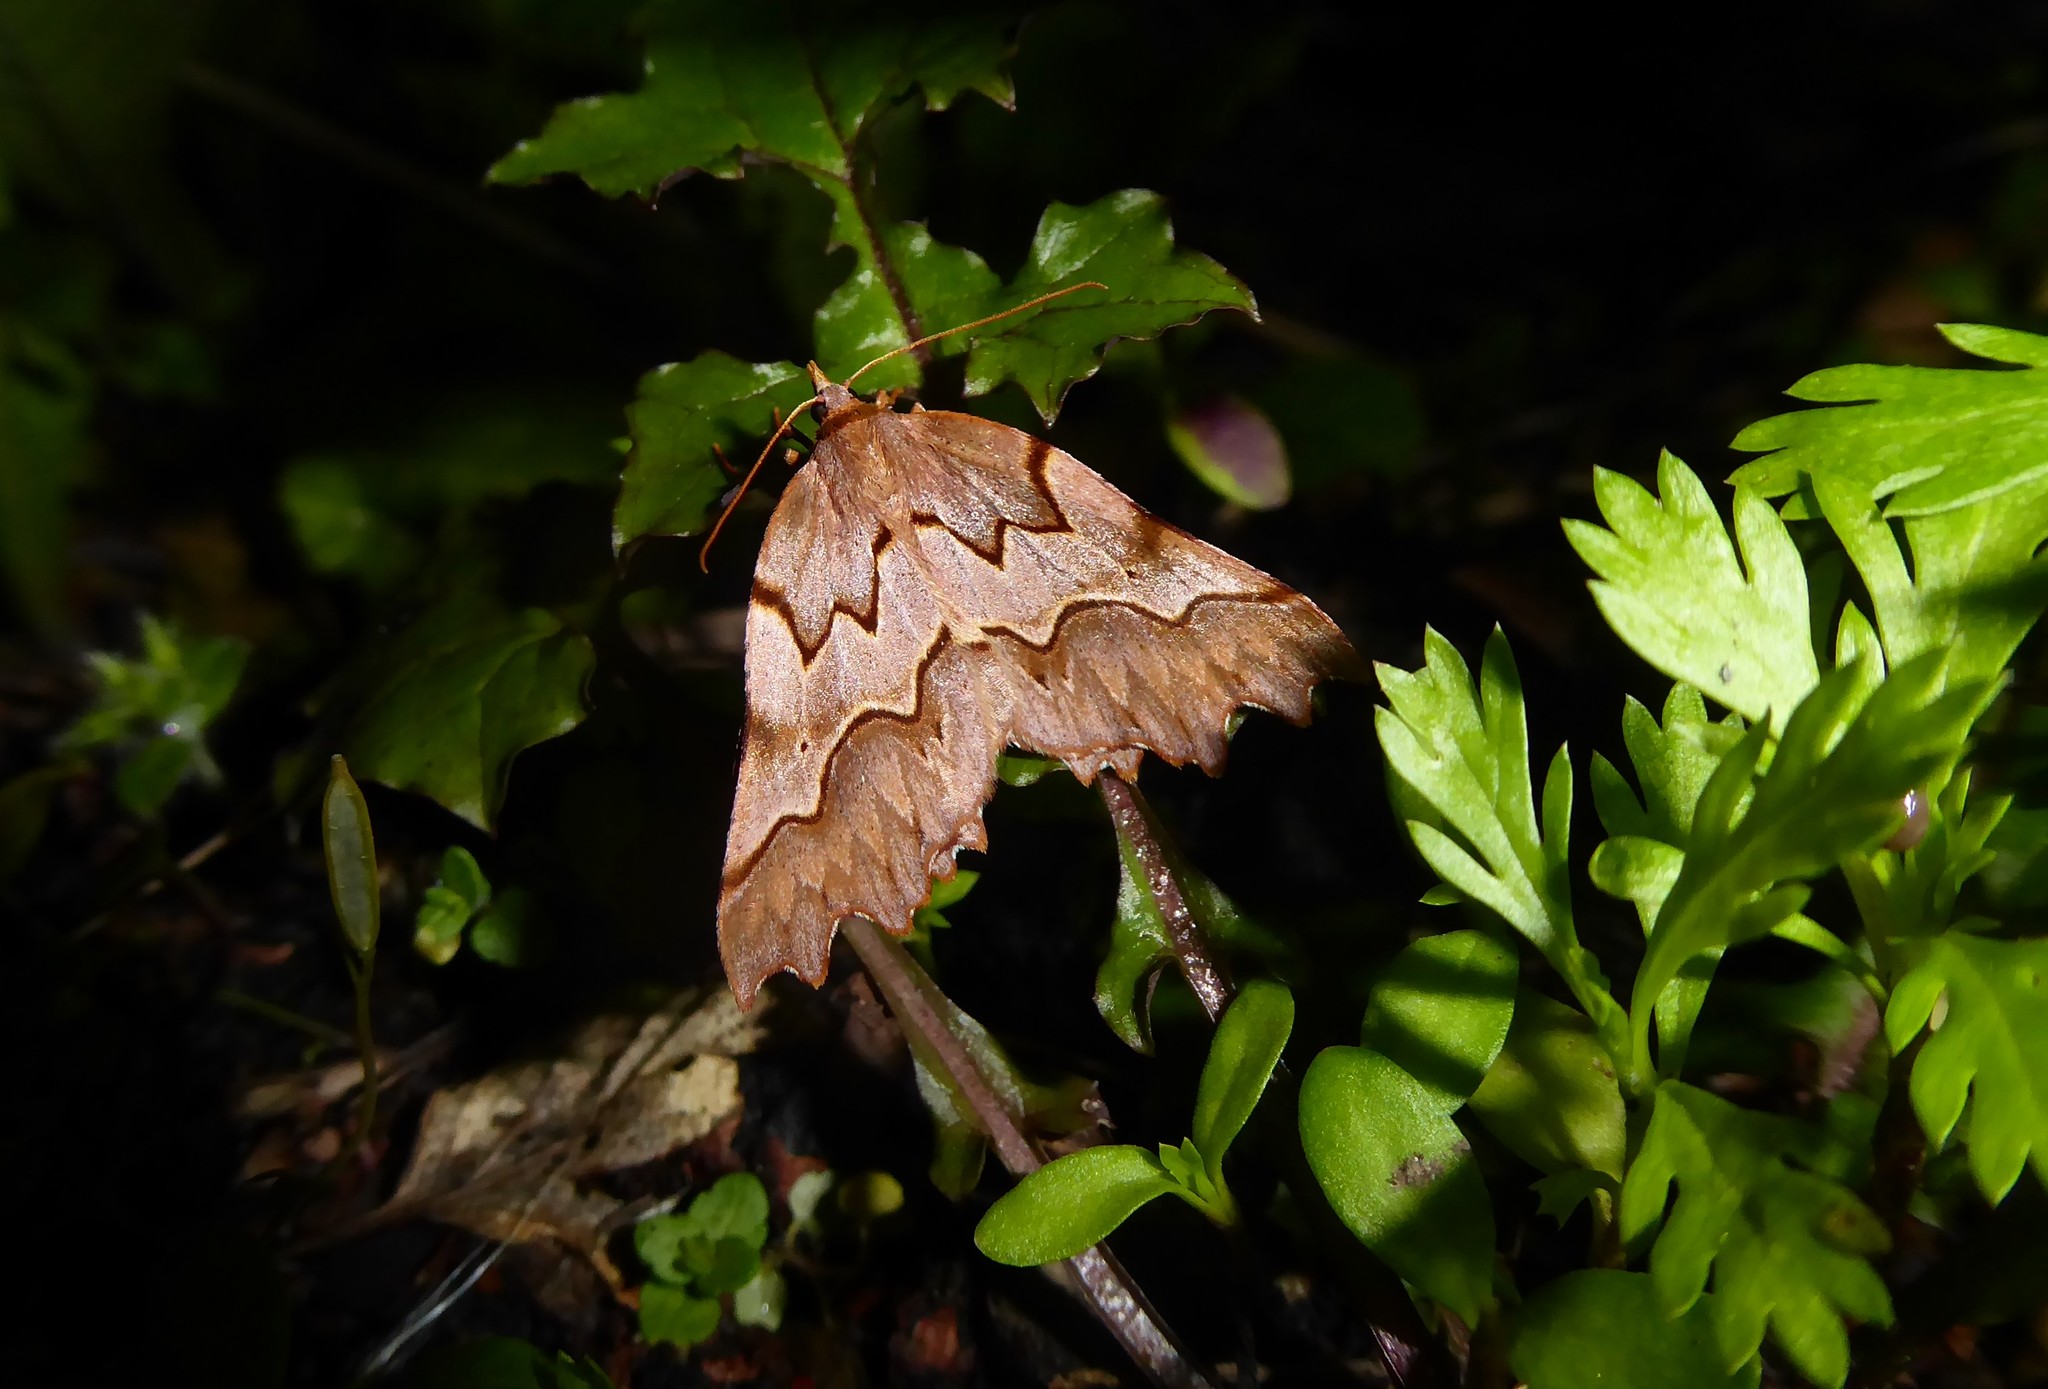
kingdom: Animalia
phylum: Arthropoda
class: Insecta
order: Lepidoptera
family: Geometridae
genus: Ischalis
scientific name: Ischalis fortinata
